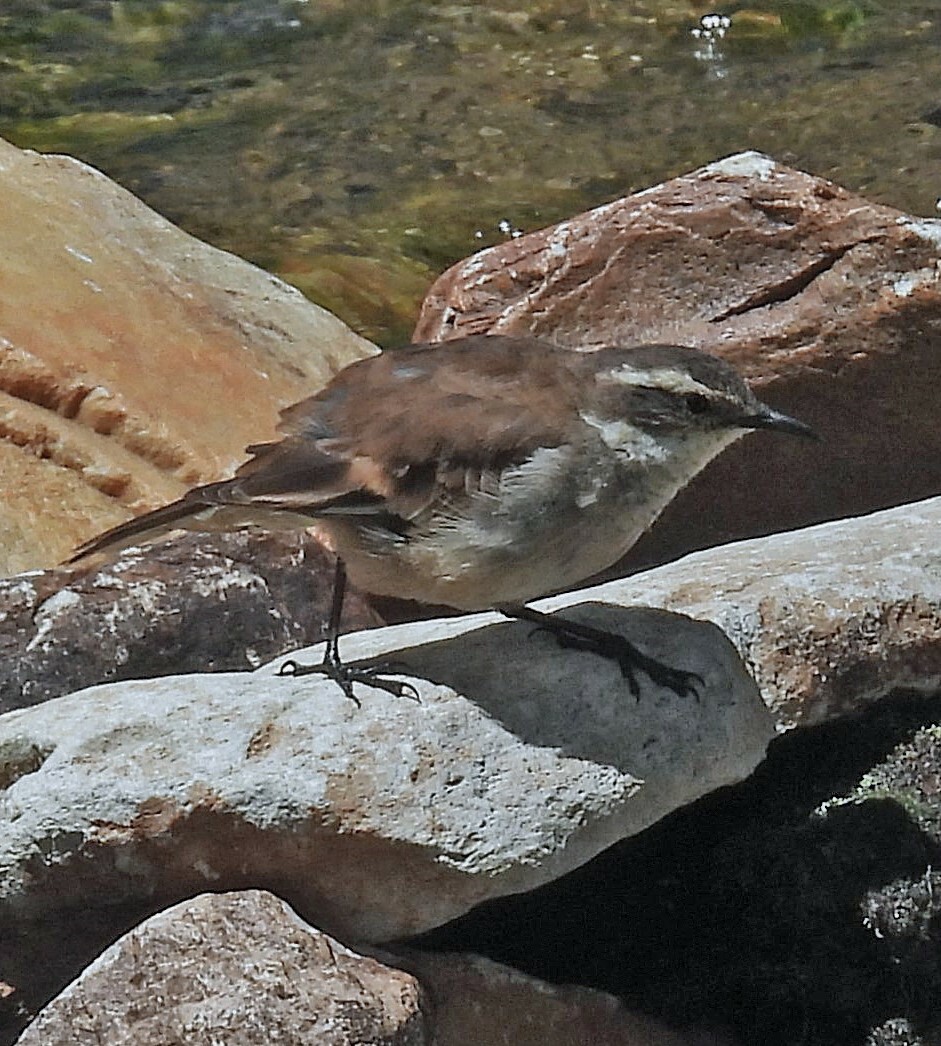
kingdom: Animalia
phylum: Chordata
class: Aves
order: Passeriformes
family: Furnariidae
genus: Cinclodes
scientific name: Cinclodes fuscus
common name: Buff-winged cinclodes
